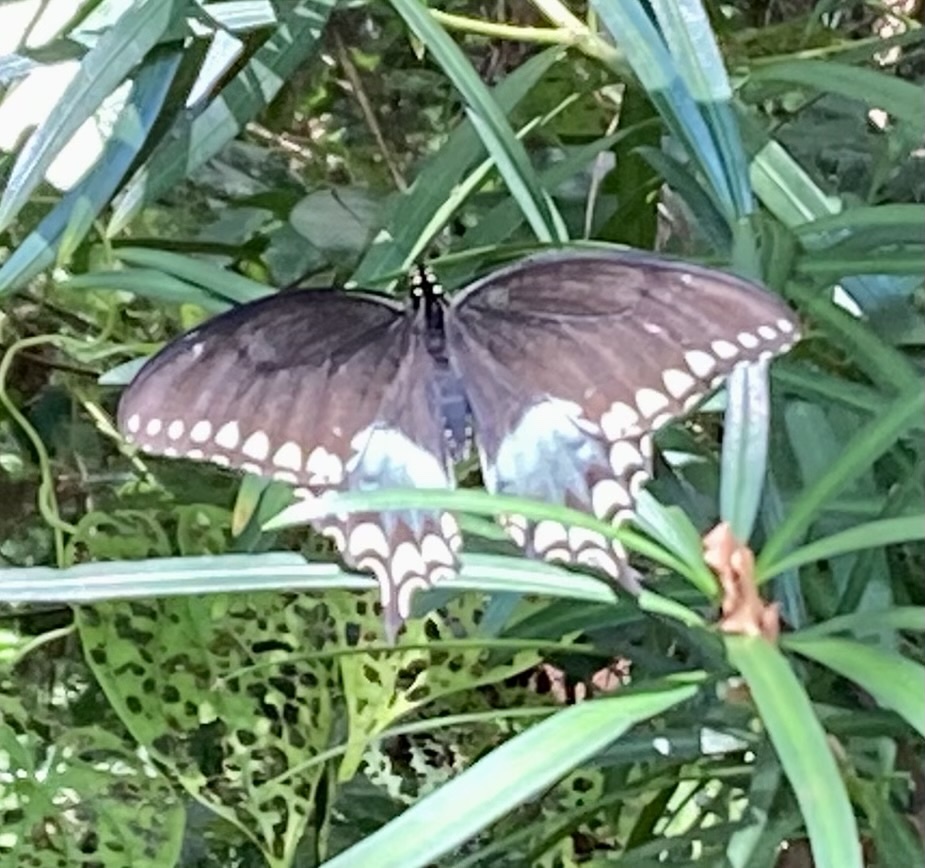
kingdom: Animalia
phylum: Arthropoda
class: Insecta
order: Lepidoptera
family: Papilionidae
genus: Papilio
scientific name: Papilio troilus
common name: Spicebush swallowtail
